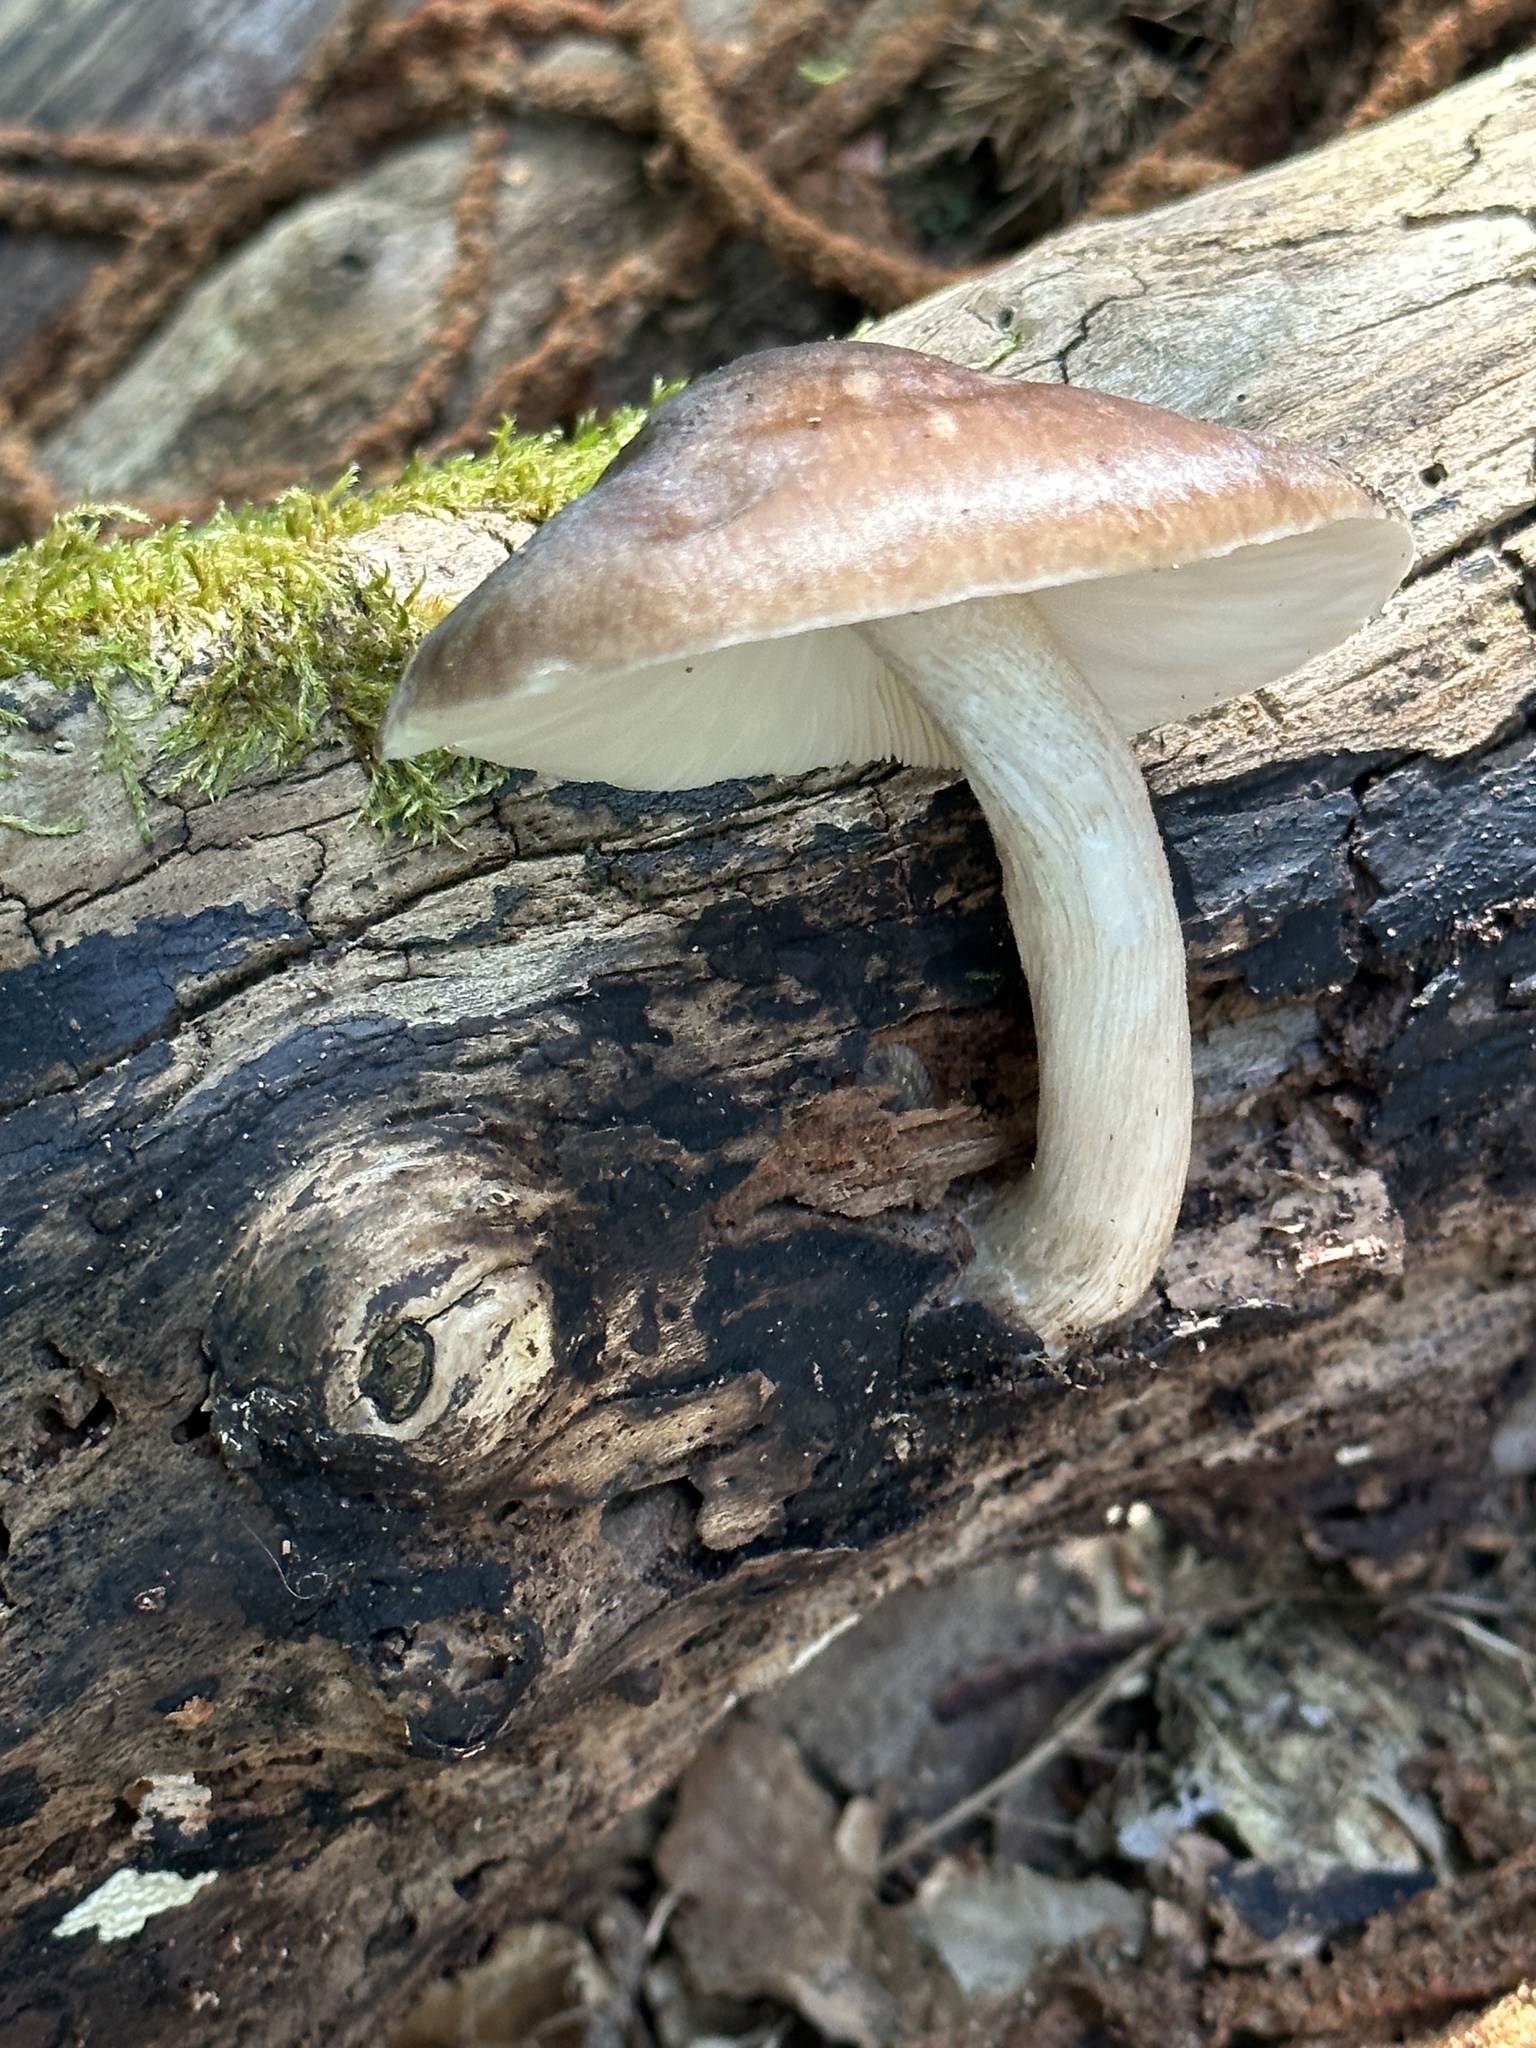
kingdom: Fungi
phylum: Basidiomycota
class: Agaricomycetes
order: Agaricales
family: Pluteaceae
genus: Pluteus
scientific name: Pluteus cervinus
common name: Deer shield
